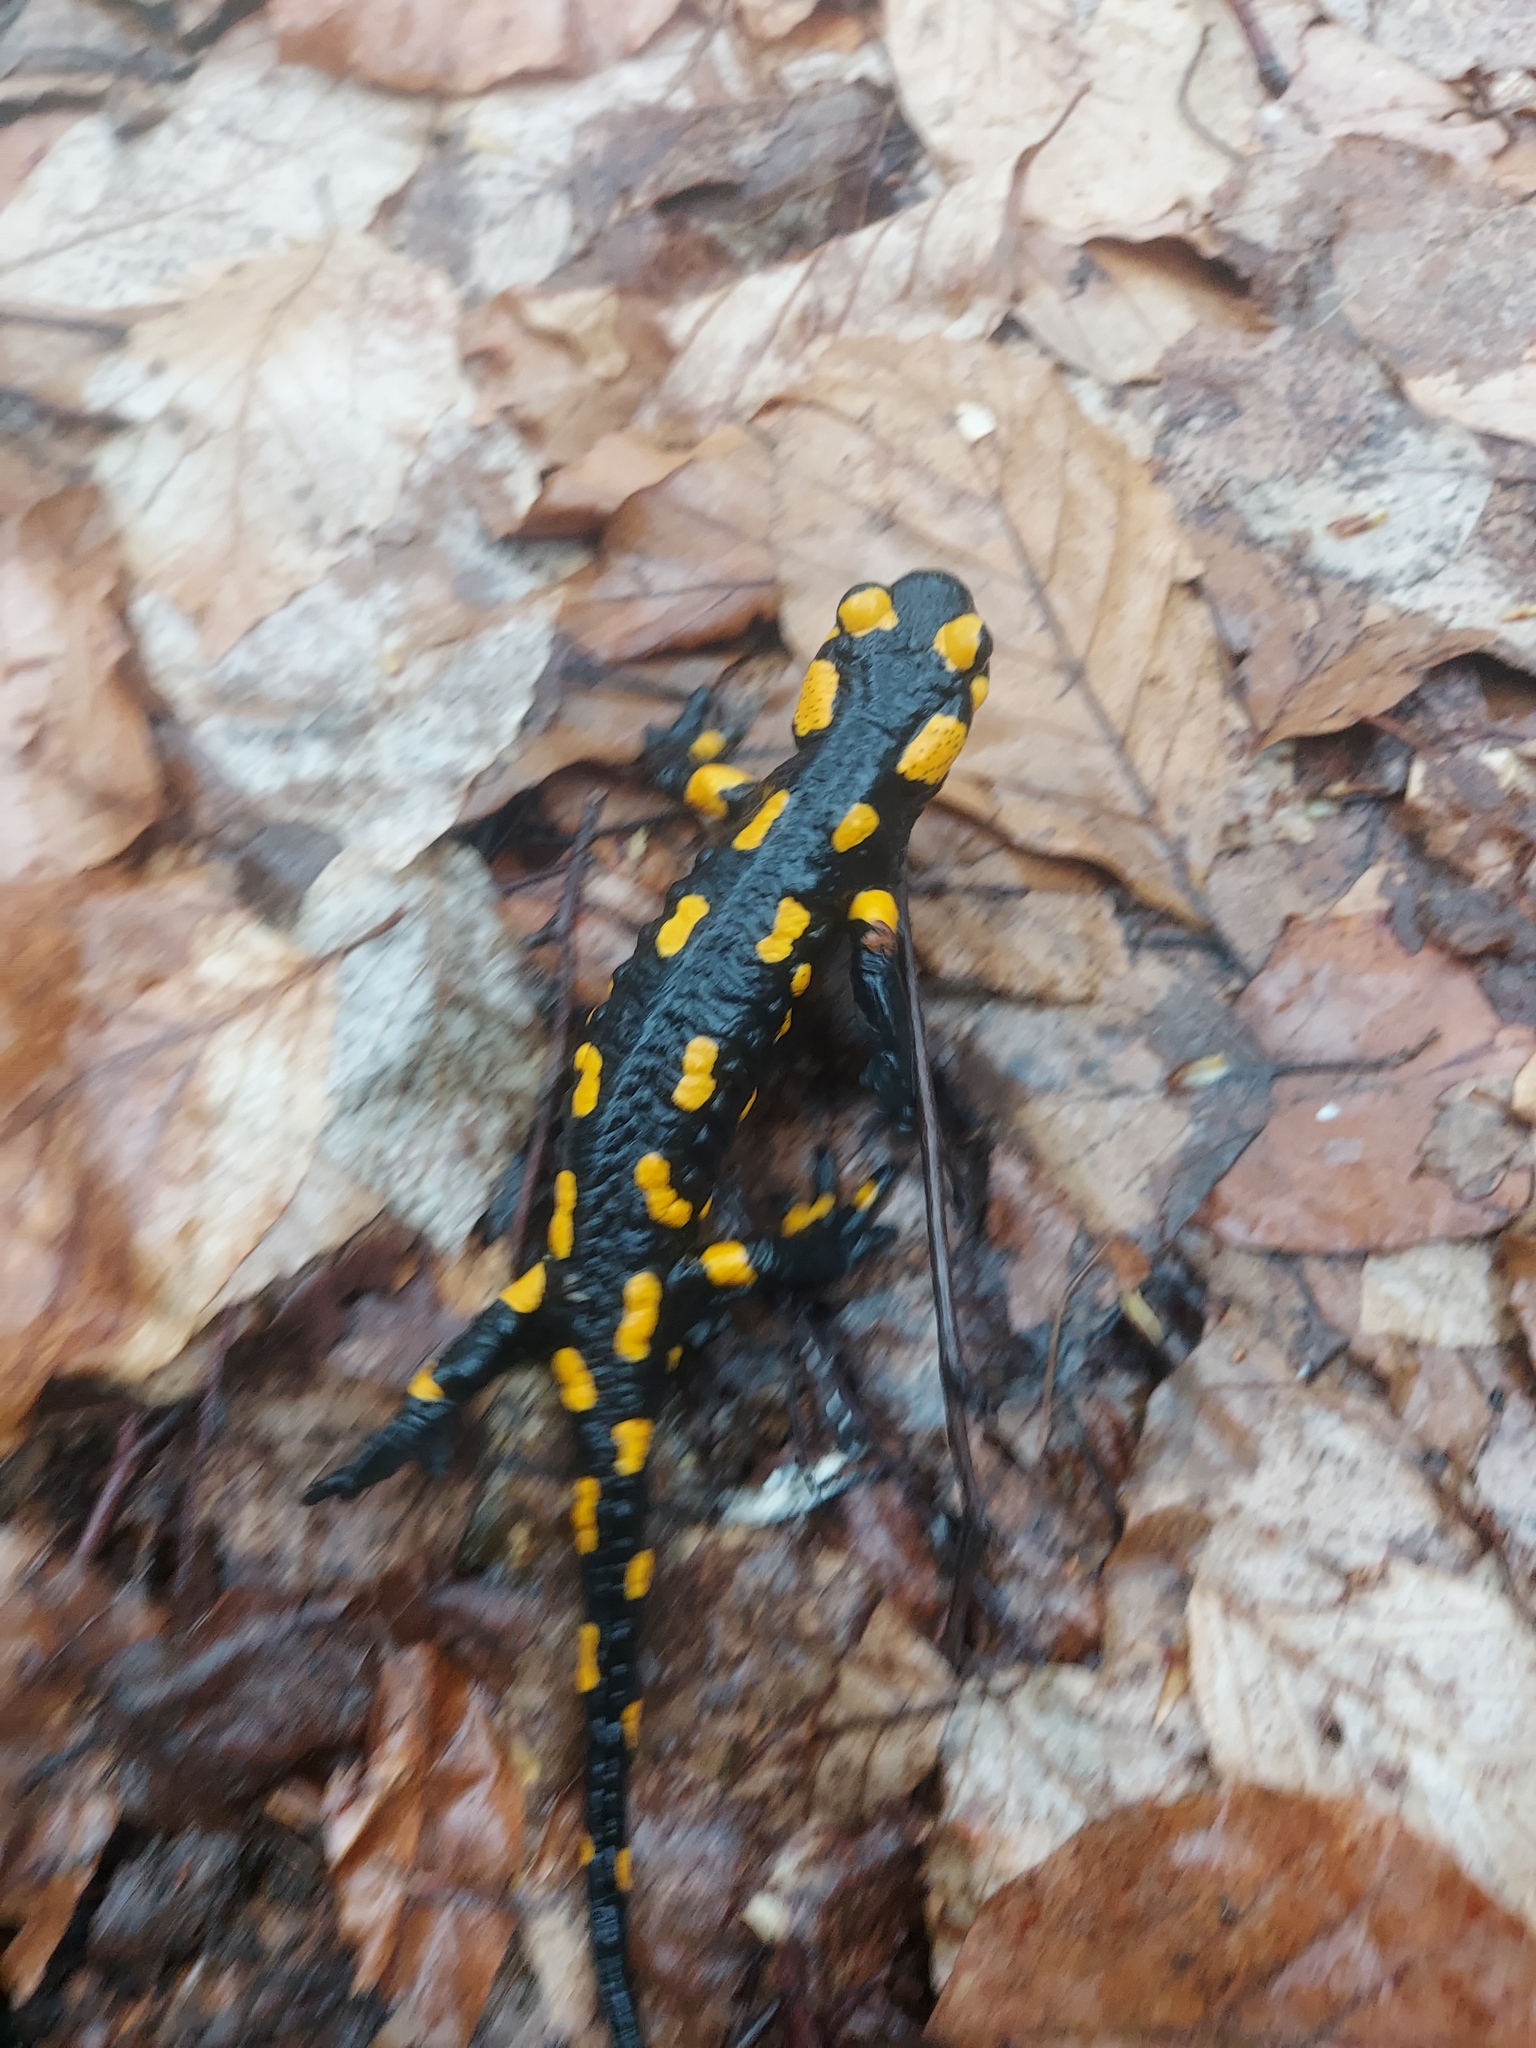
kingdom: Animalia
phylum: Chordata
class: Amphibia
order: Caudata
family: Salamandridae
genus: Salamandra
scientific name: Salamandra salamandra
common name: Fire salamander
